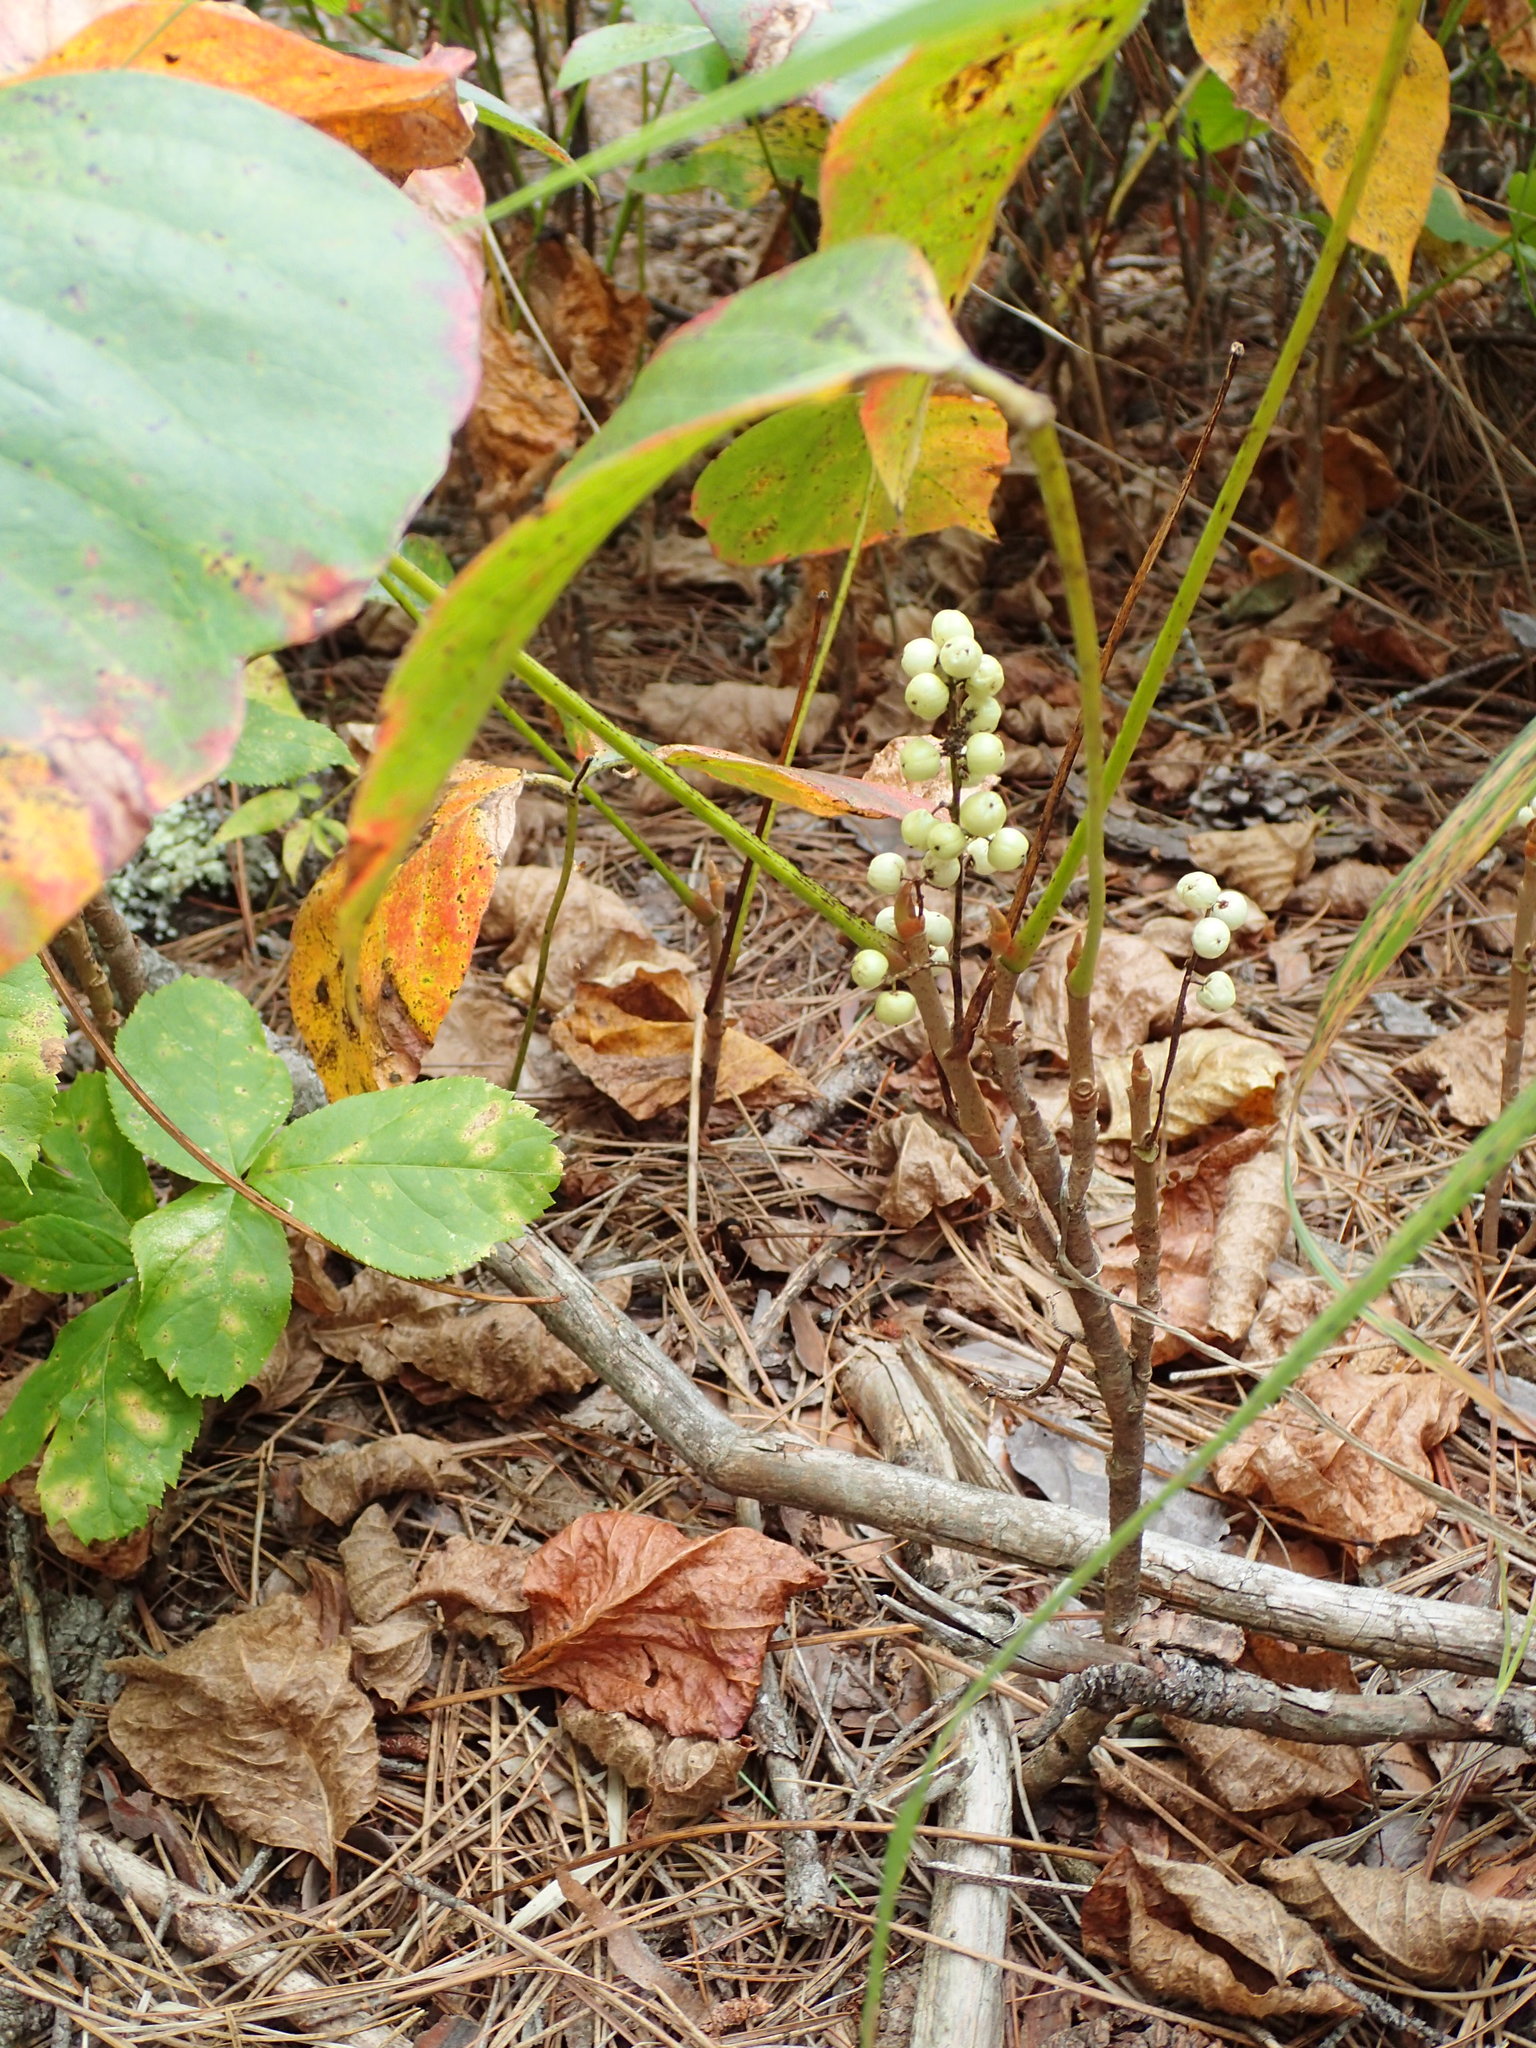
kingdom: Plantae
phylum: Tracheophyta
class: Magnoliopsida
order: Sapindales
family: Anacardiaceae
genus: Toxicodendron
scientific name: Toxicodendron rydbergii
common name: Rydberg's poison-ivy
